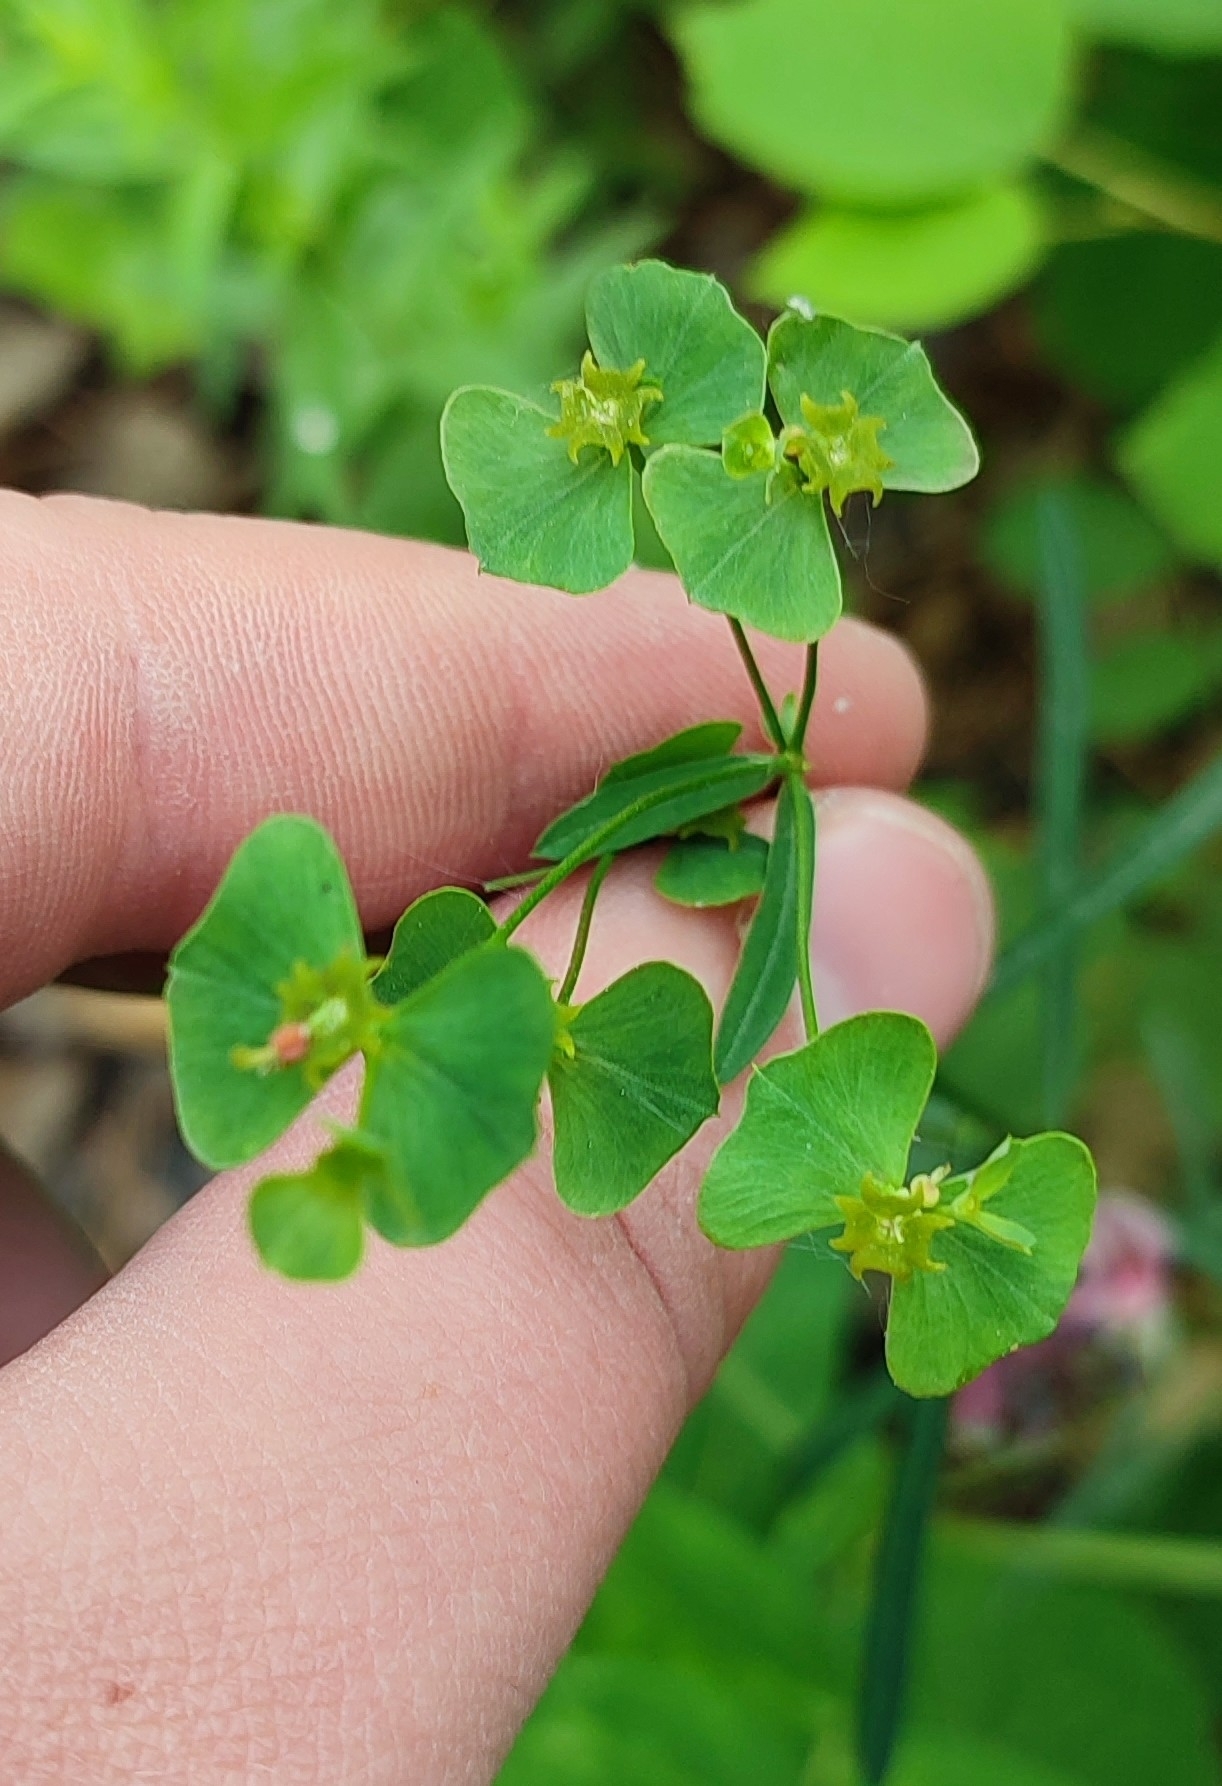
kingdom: Plantae
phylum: Tracheophyta
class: Magnoliopsida
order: Malpighiales
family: Euphorbiaceae
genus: Euphorbia
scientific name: Euphorbia borealis
